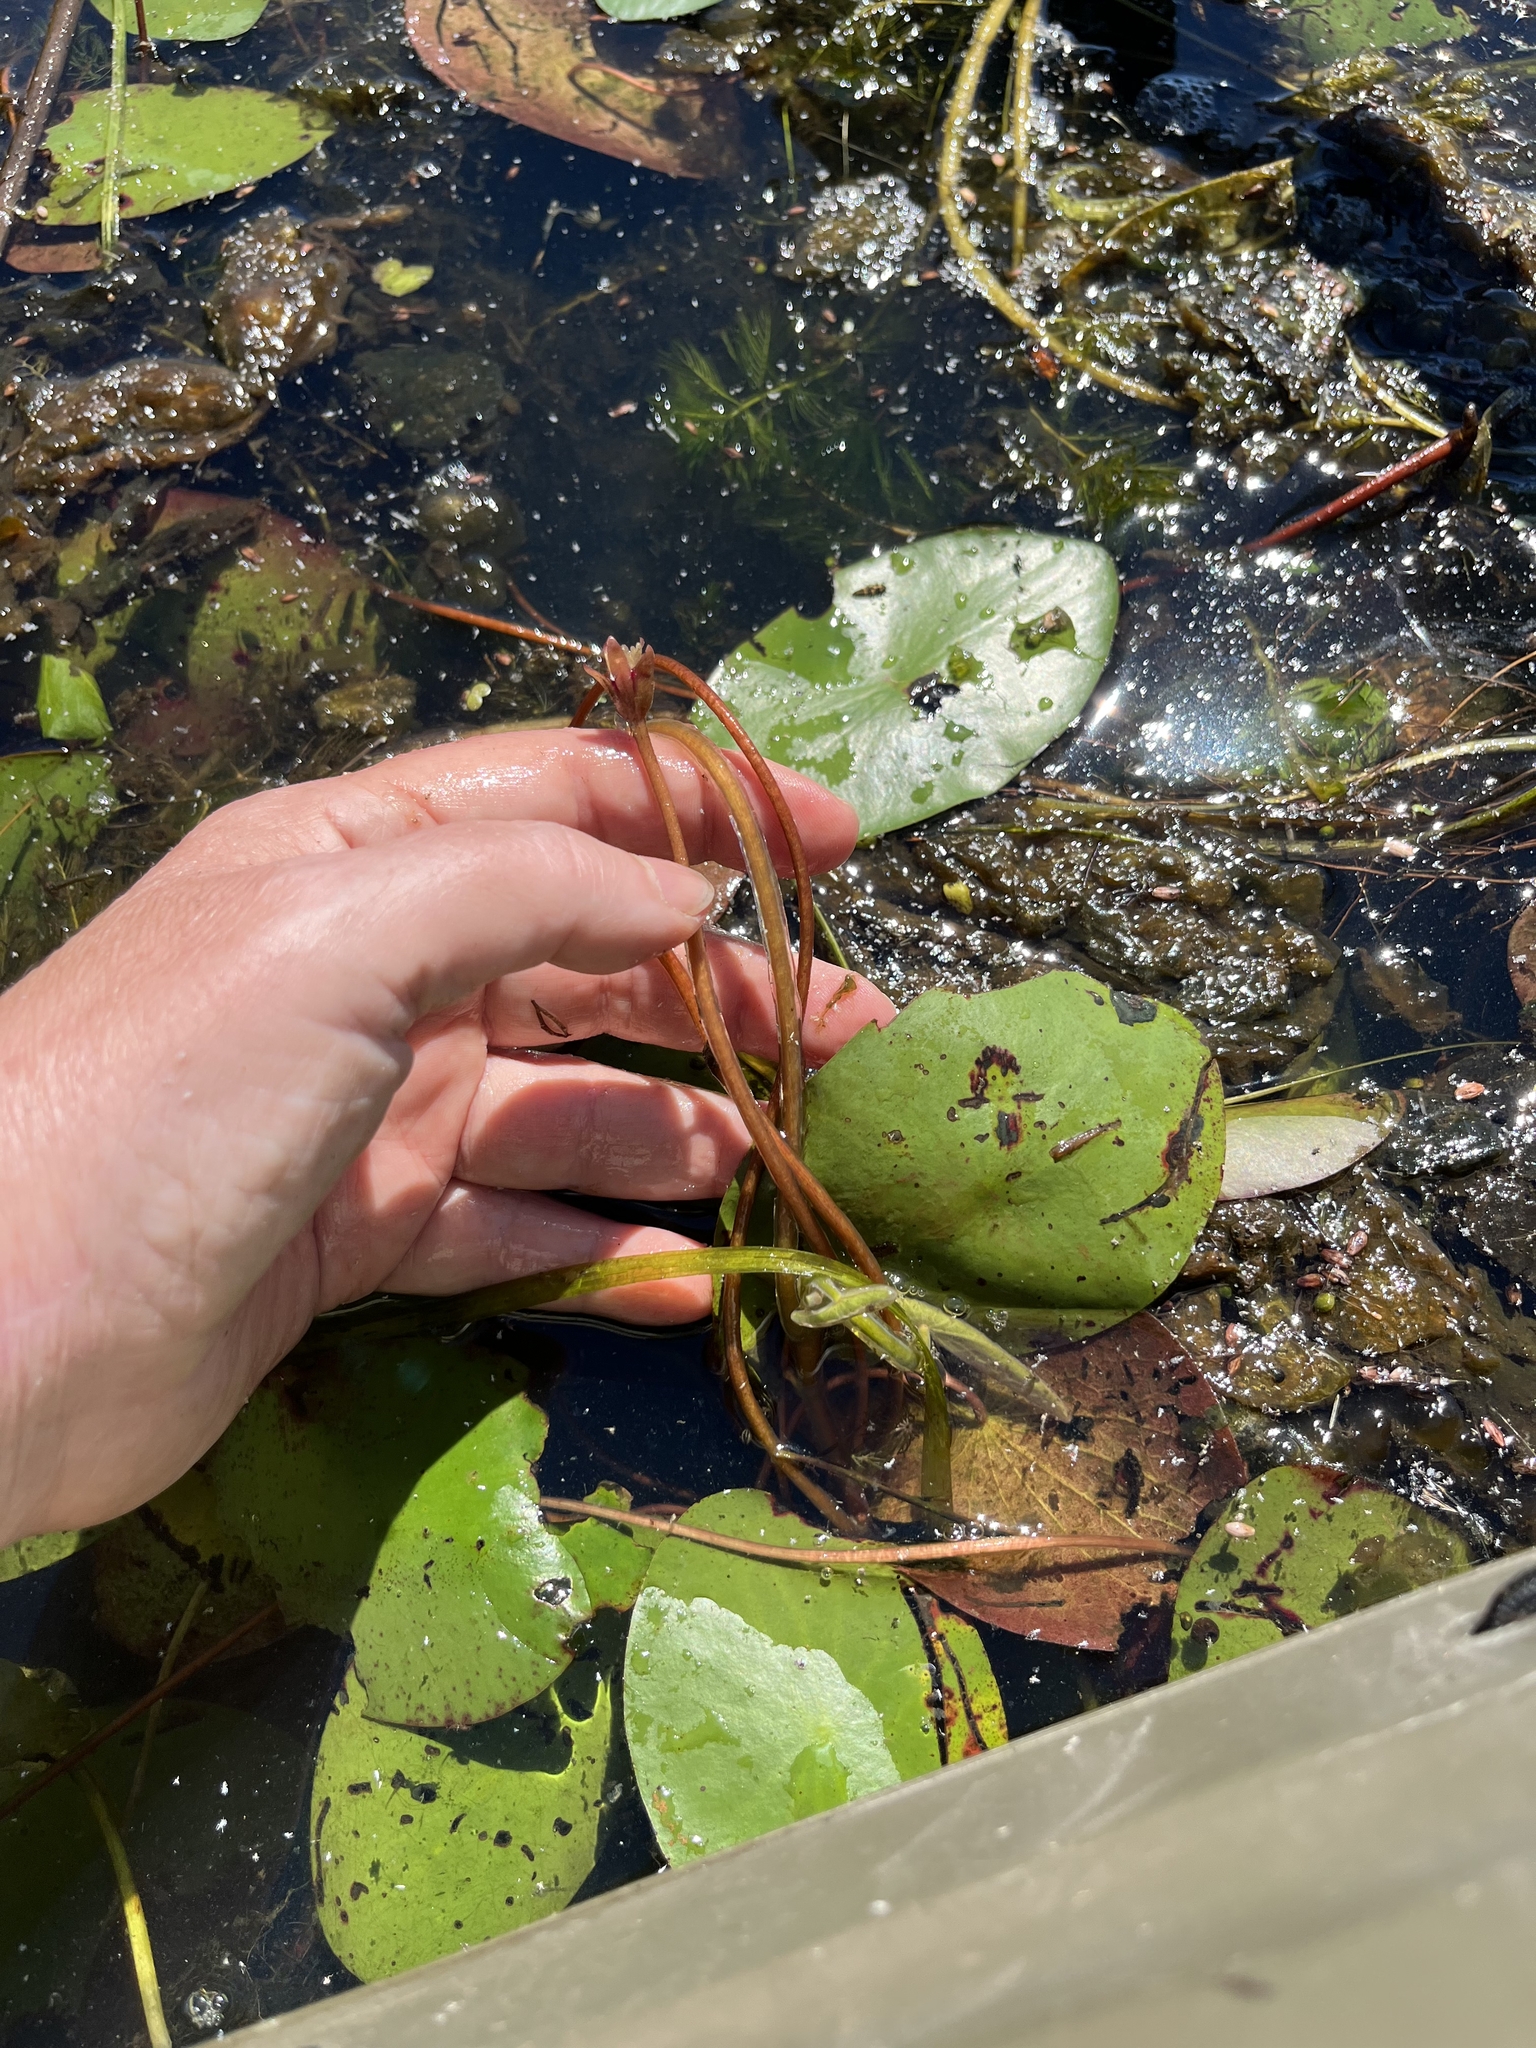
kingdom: Plantae
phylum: Tracheophyta
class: Magnoliopsida
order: Nymphaeales
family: Cabombaceae
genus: Brasenia
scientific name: Brasenia schreberi
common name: Water-shield
